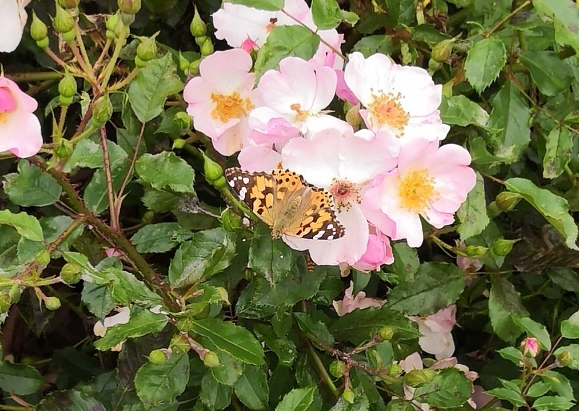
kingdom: Animalia
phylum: Arthropoda
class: Insecta
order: Lepidoptera
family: Nymphalidae
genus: Vanessa
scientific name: Vanessa cardui
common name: Painted lady
